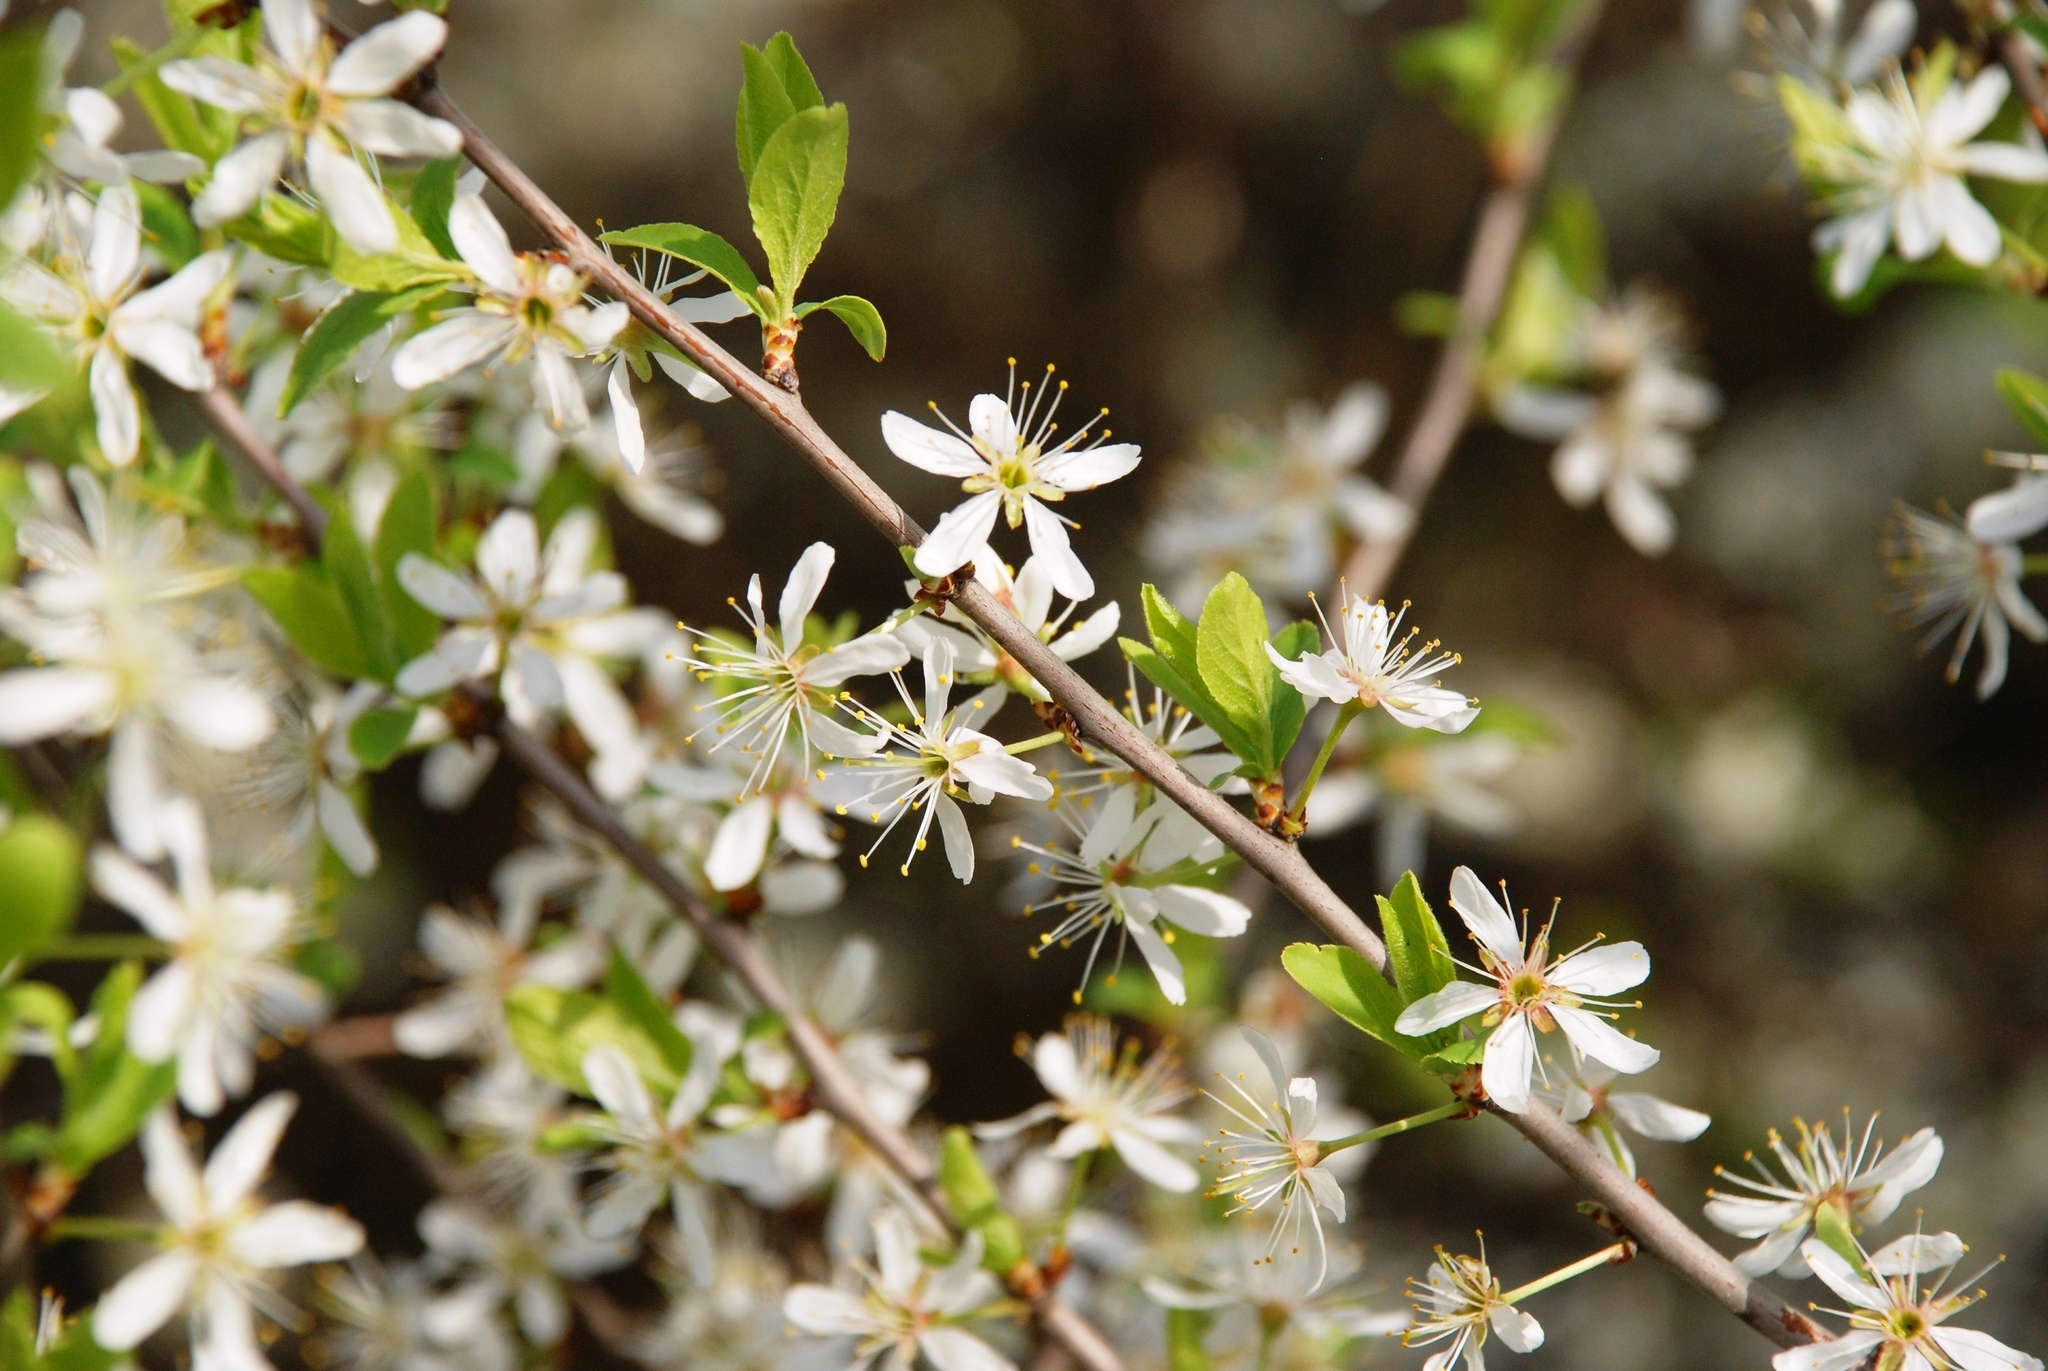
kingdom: Plantae
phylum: Tracheophyta
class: Magnoliopsida
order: Rosales
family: Rosaceae
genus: Prunus
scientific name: Prunus spinosa
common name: Blackthorn
